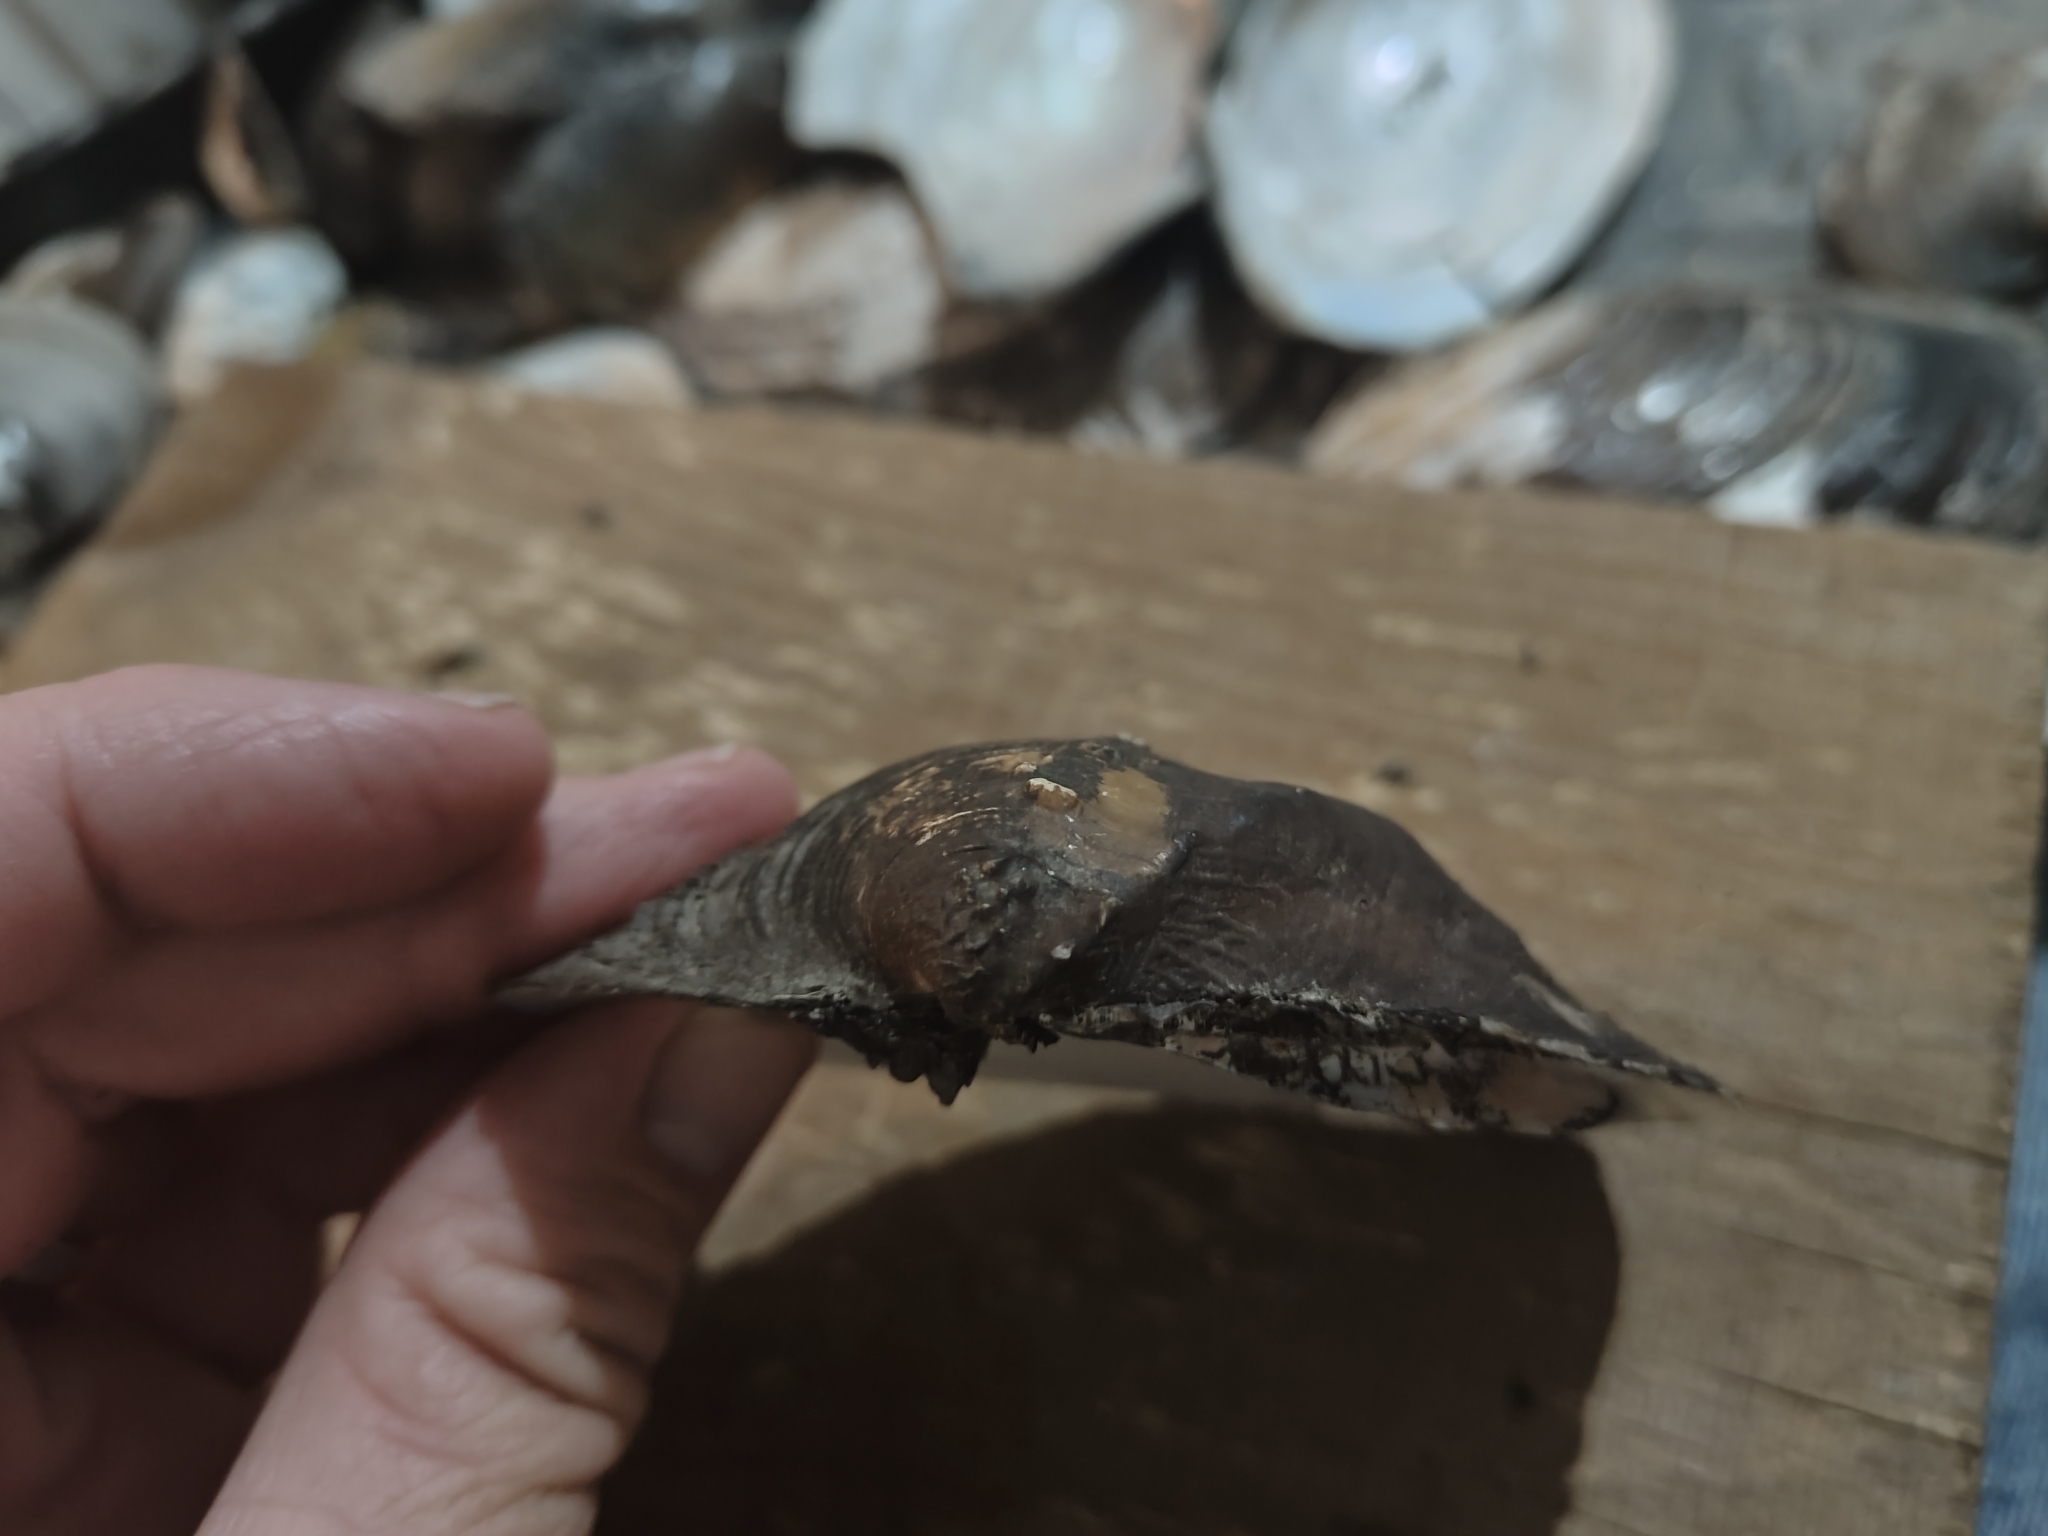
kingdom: Animalia
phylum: Mollusca
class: Bivalvia
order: Unionida
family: Unionidae
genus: Quadrula
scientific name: Quadrula quadrula
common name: Mapleleaf
